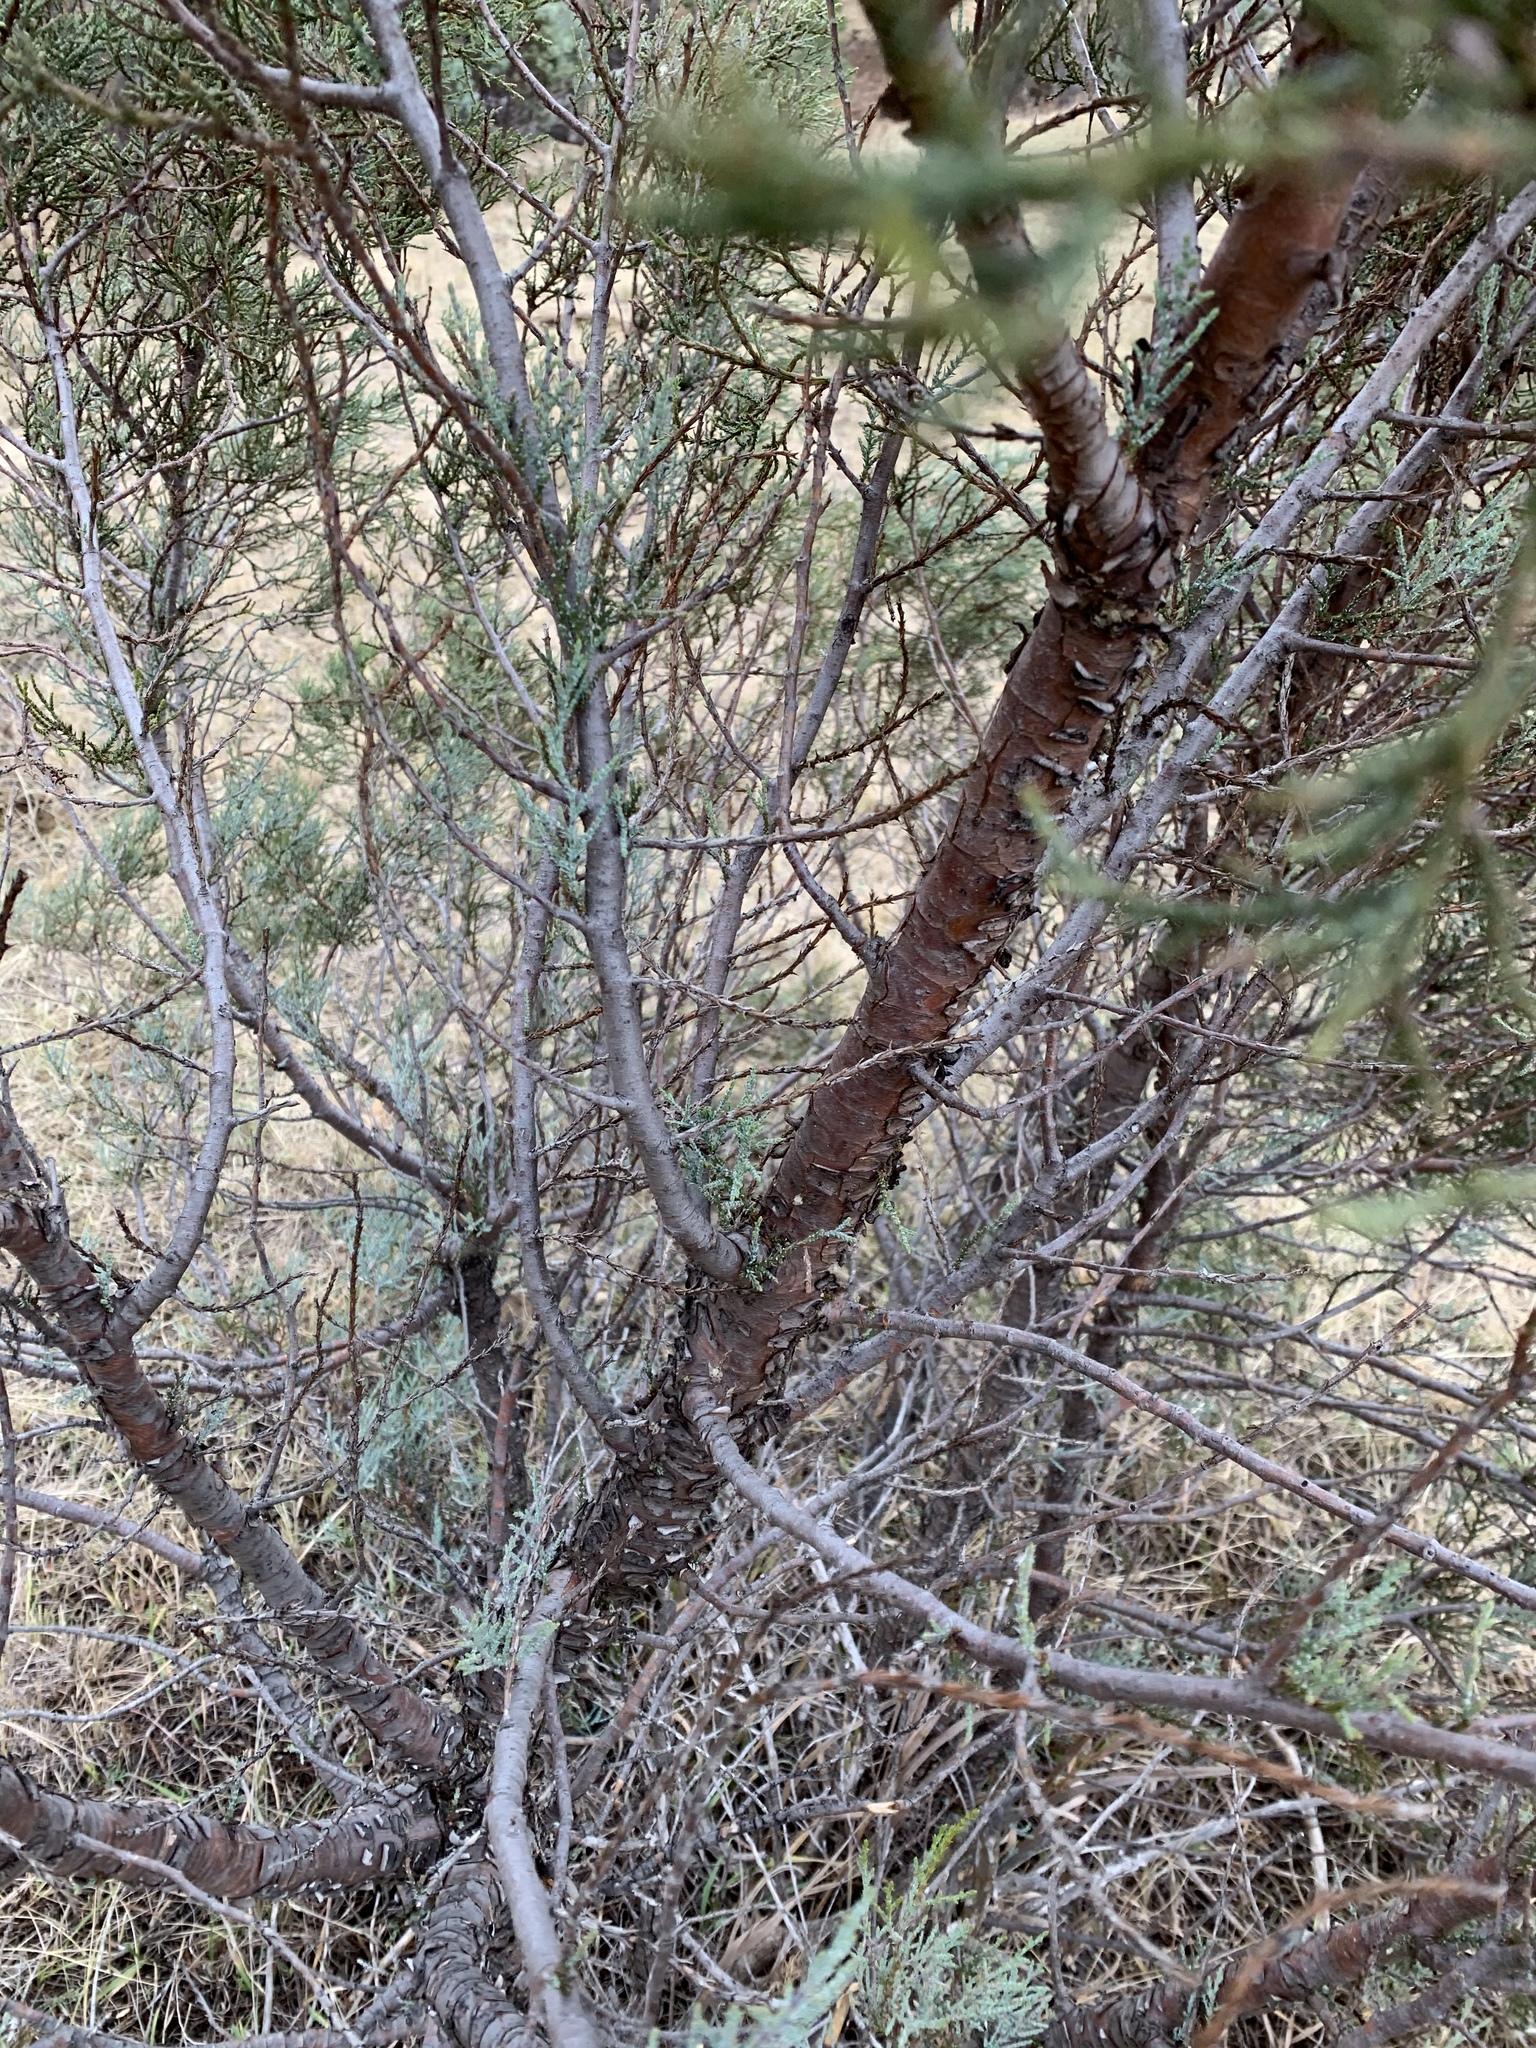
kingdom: Plantae
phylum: Tracheophyta
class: Pinopsida
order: Pinales
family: Cupressaceae
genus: Juniperus
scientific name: Juniperus deppeana
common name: Alligator juniper
